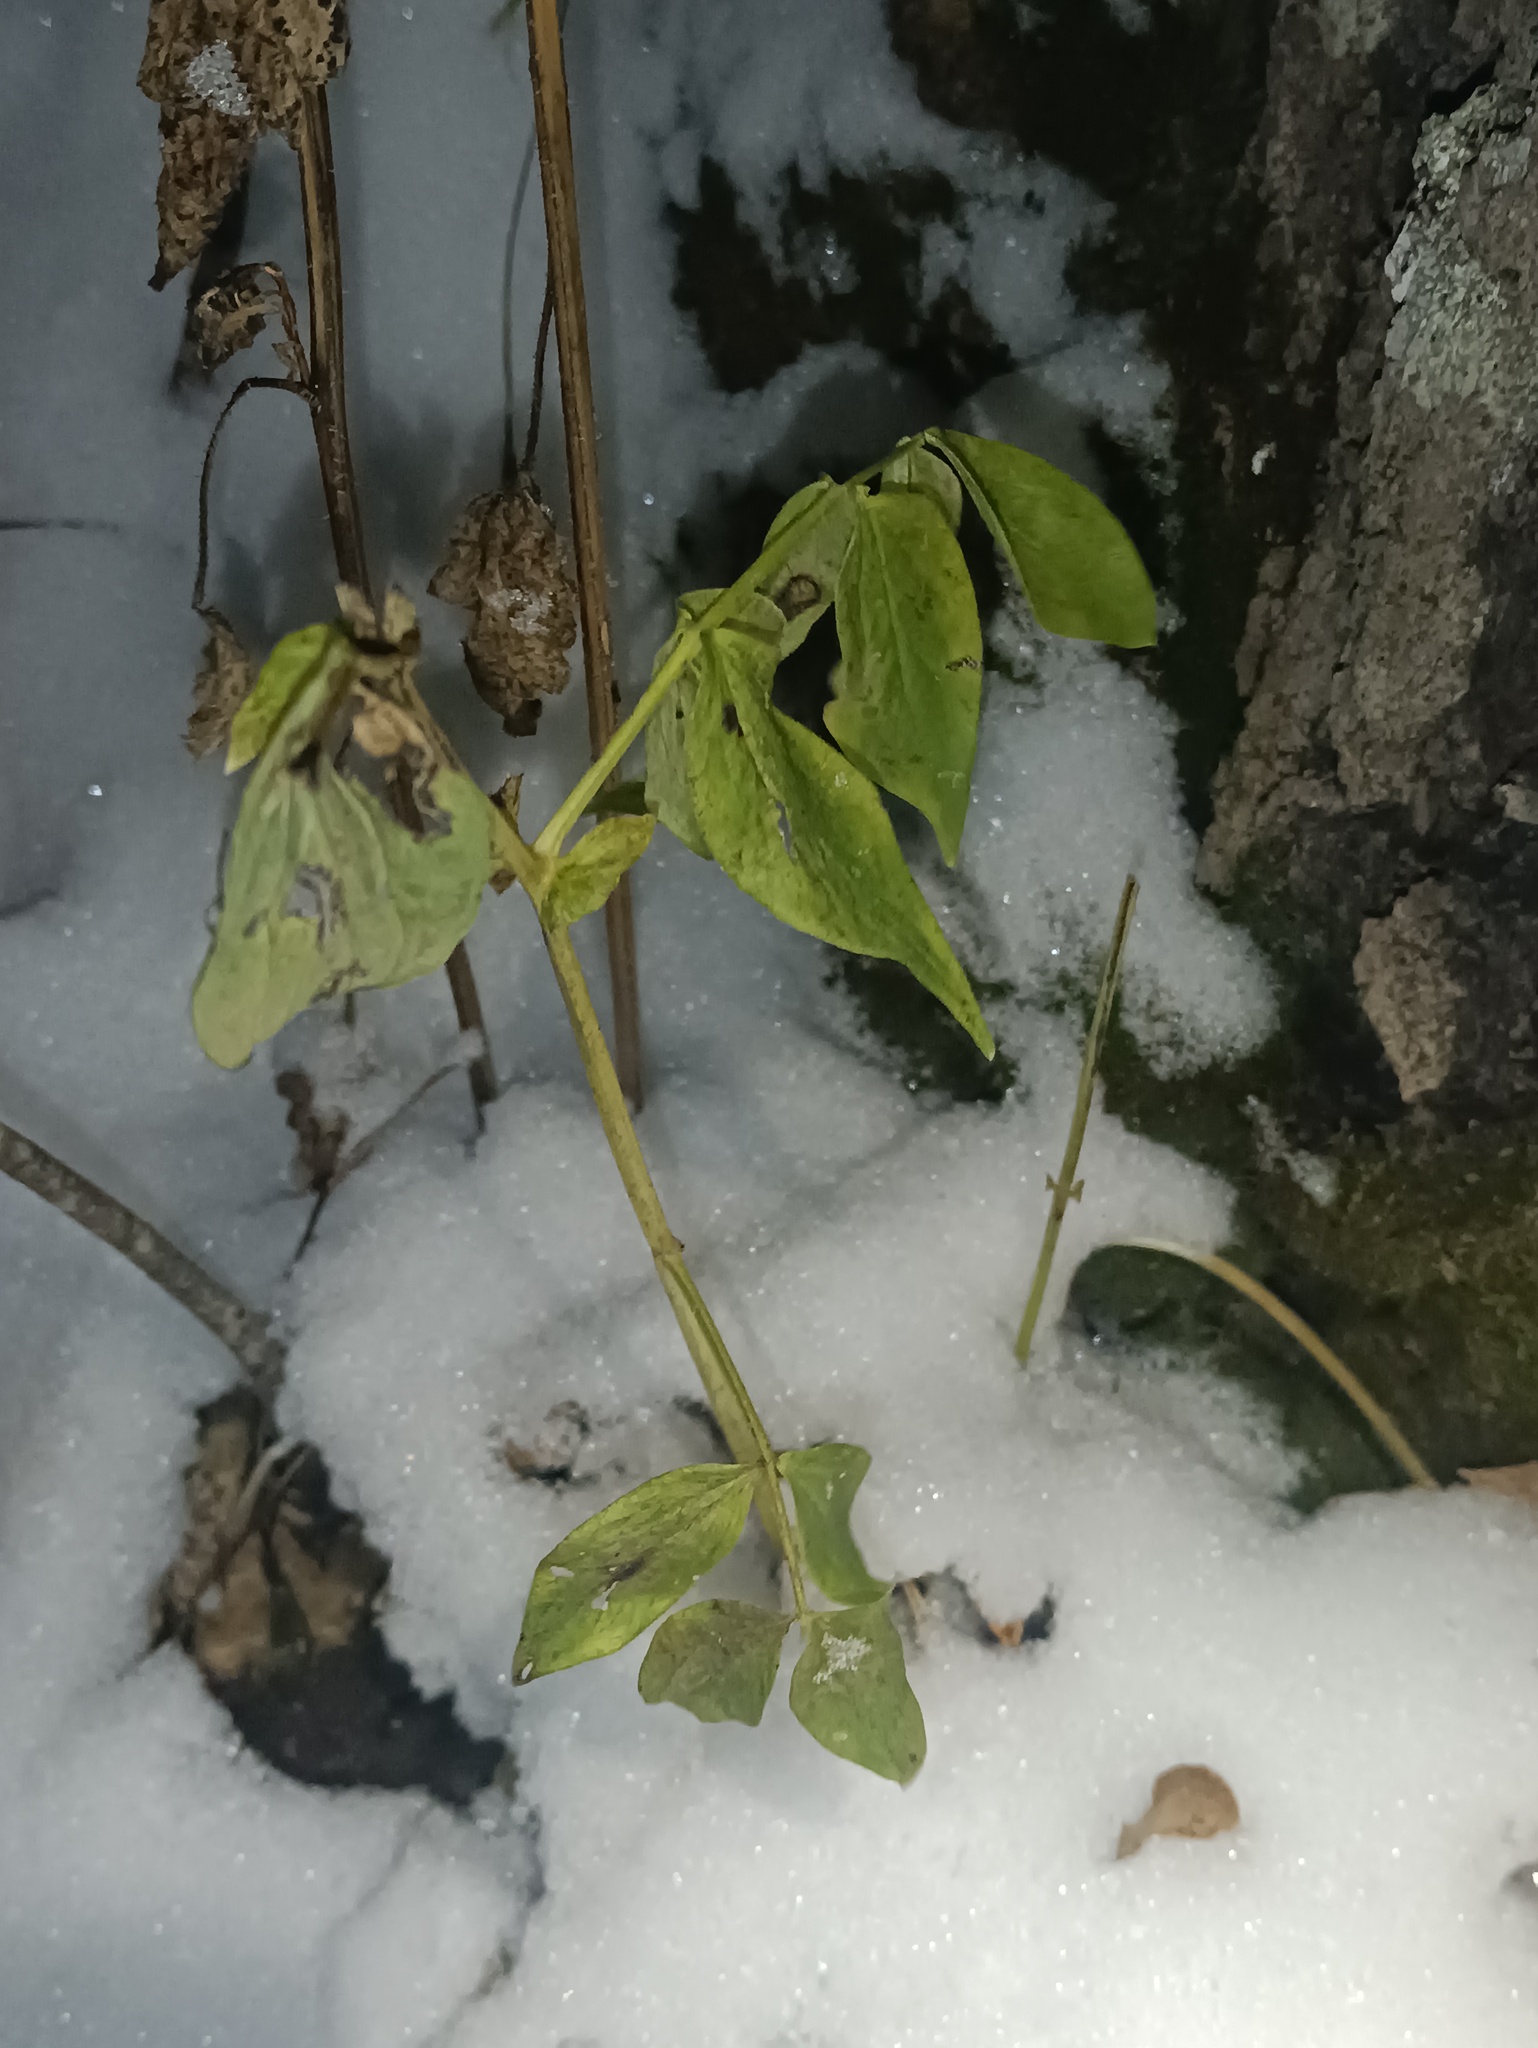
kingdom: Plantae
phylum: Tracheophyta
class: Magnoliopsida
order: Fabales
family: Fabaceae
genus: Lathyrus
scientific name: Lathyrus vernus
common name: Spring pea
